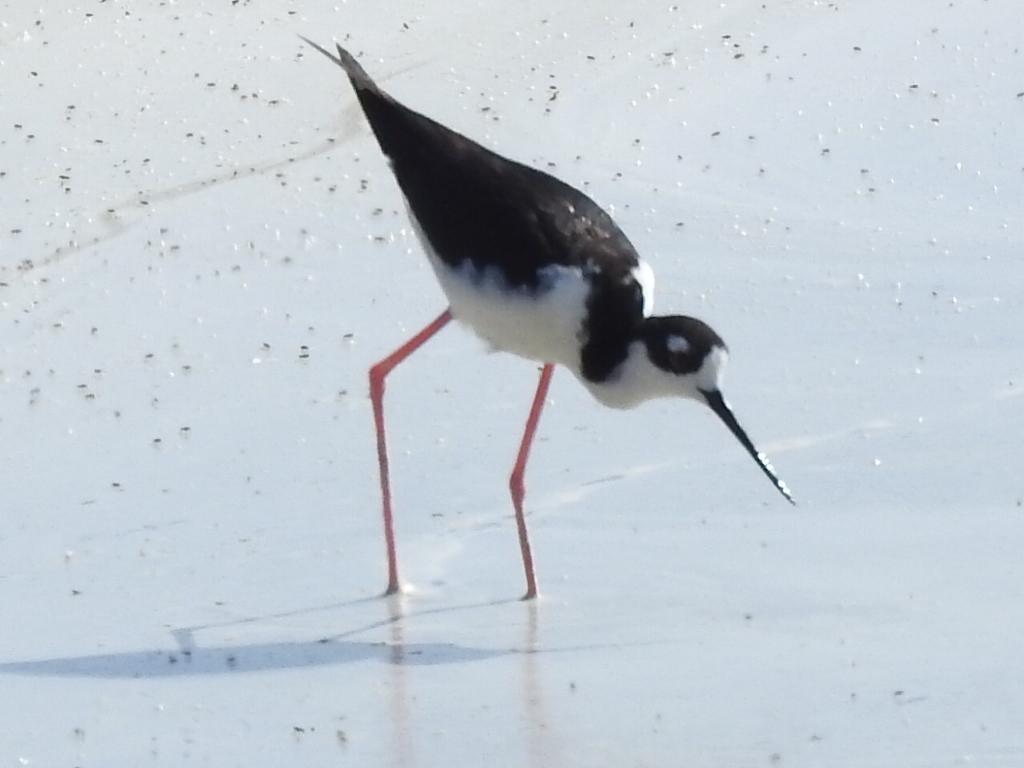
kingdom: Animalia
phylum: Chordata
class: Aves
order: Charadriiformes
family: Recurvirostridae
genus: Himantopus
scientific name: Himantopus mexicanus
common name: Black-necked stilt
